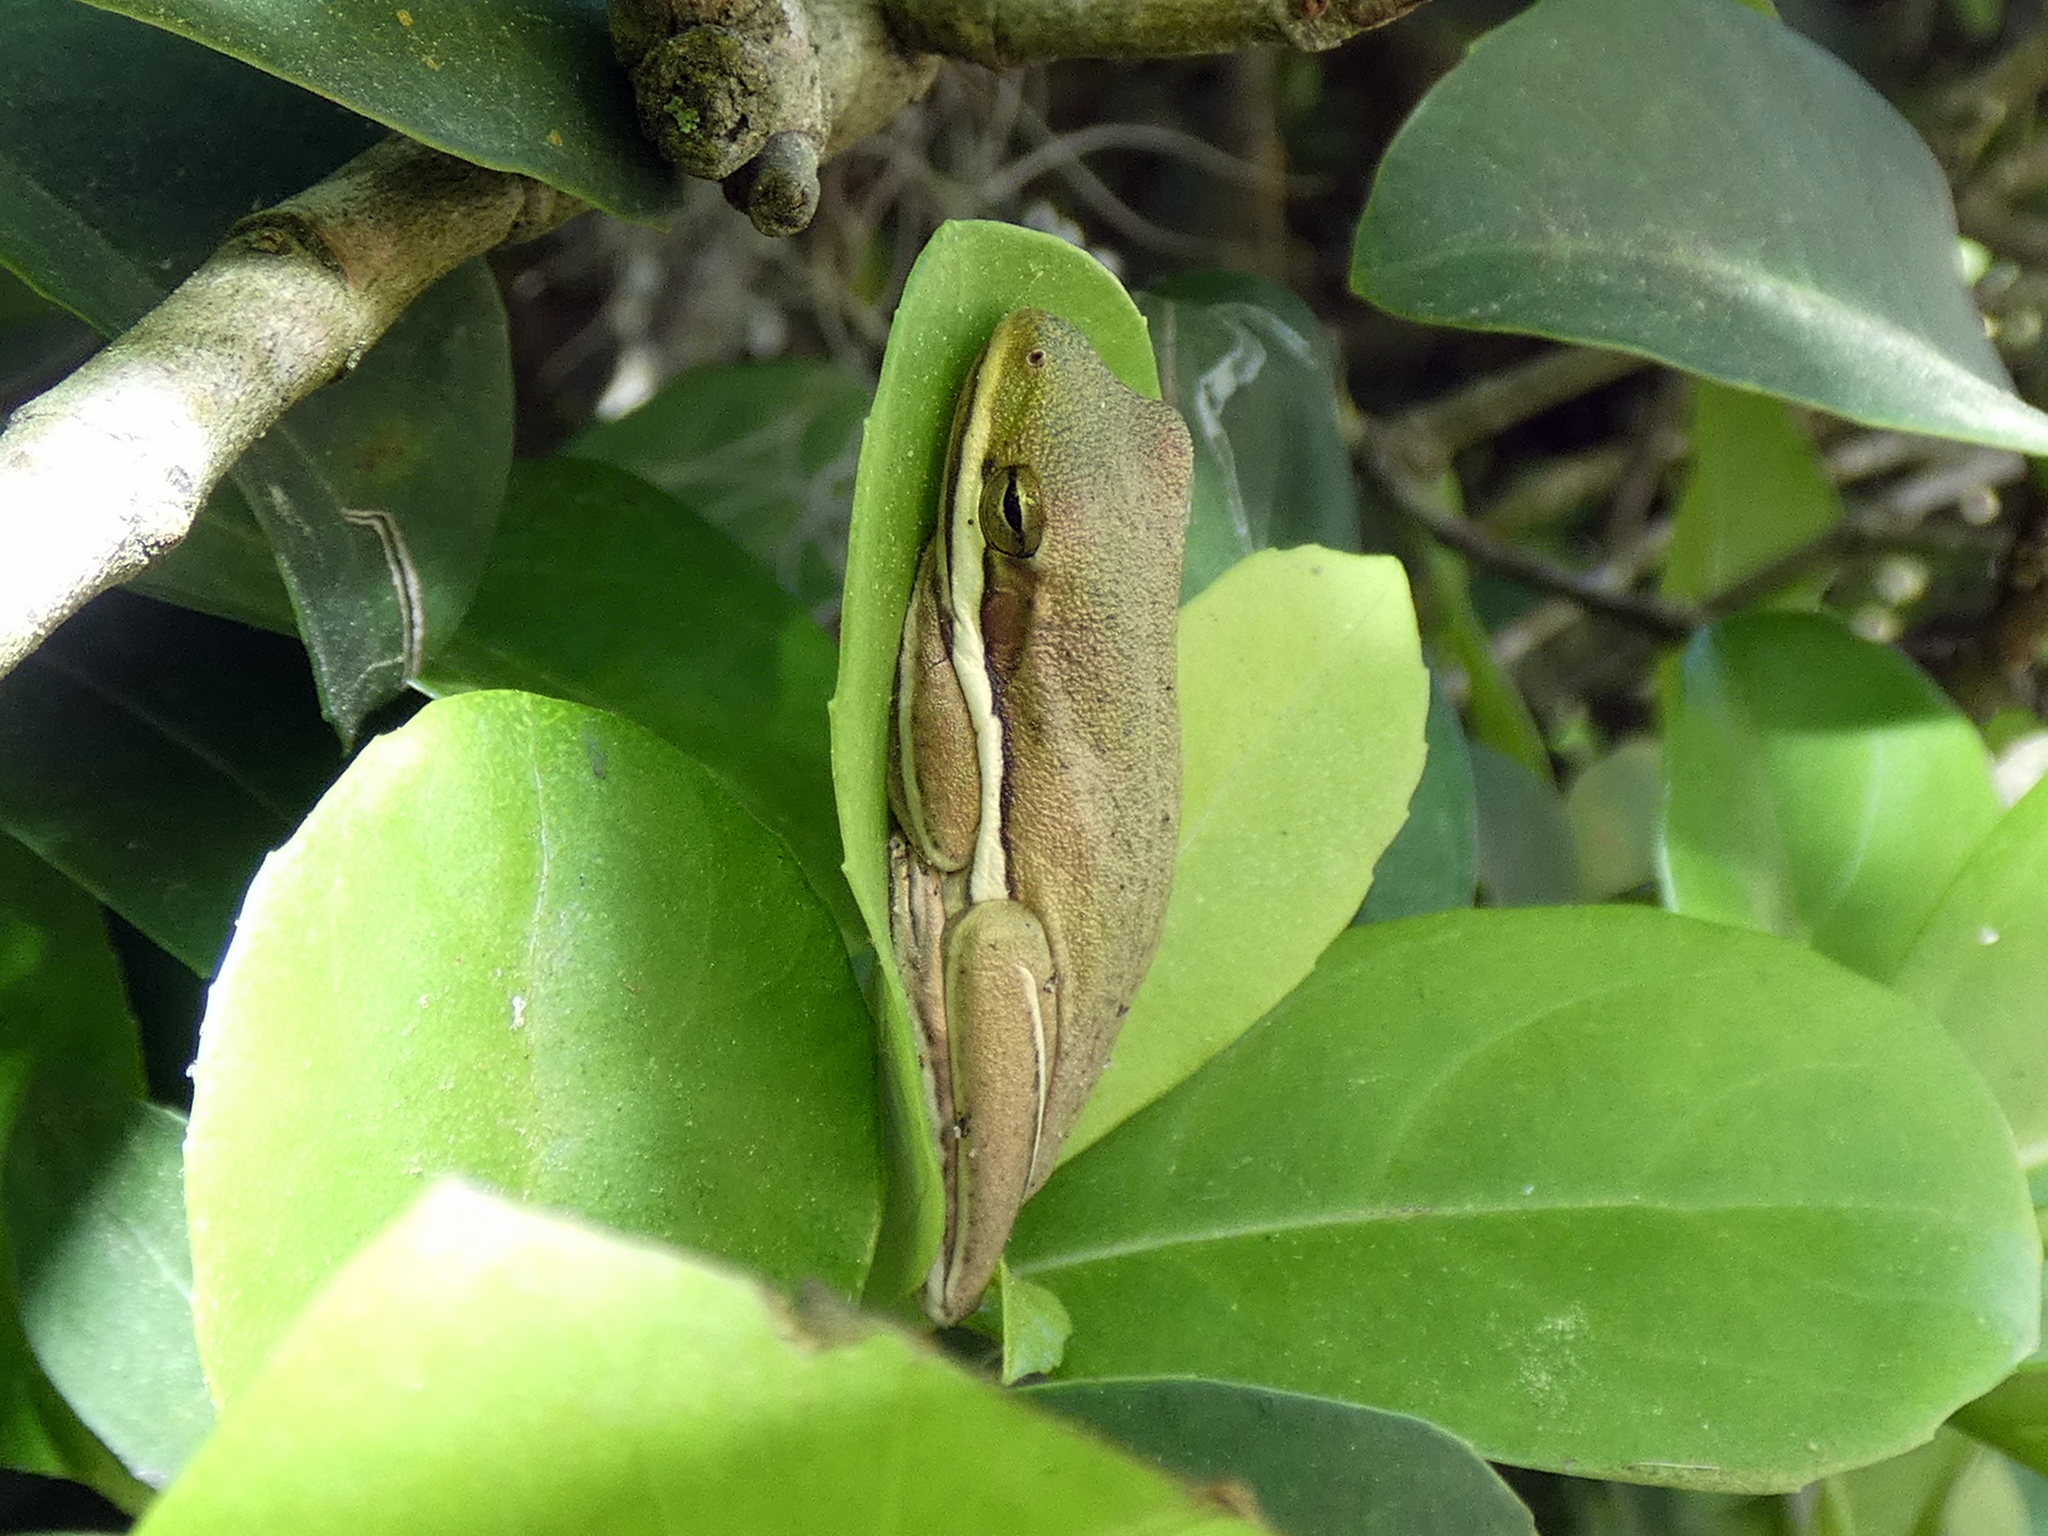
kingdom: Animalia
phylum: Chordata
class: Amphibia
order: Anura
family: Hylidae
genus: Dryophytes
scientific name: Dryophytes cinereus
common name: Green treefrog
